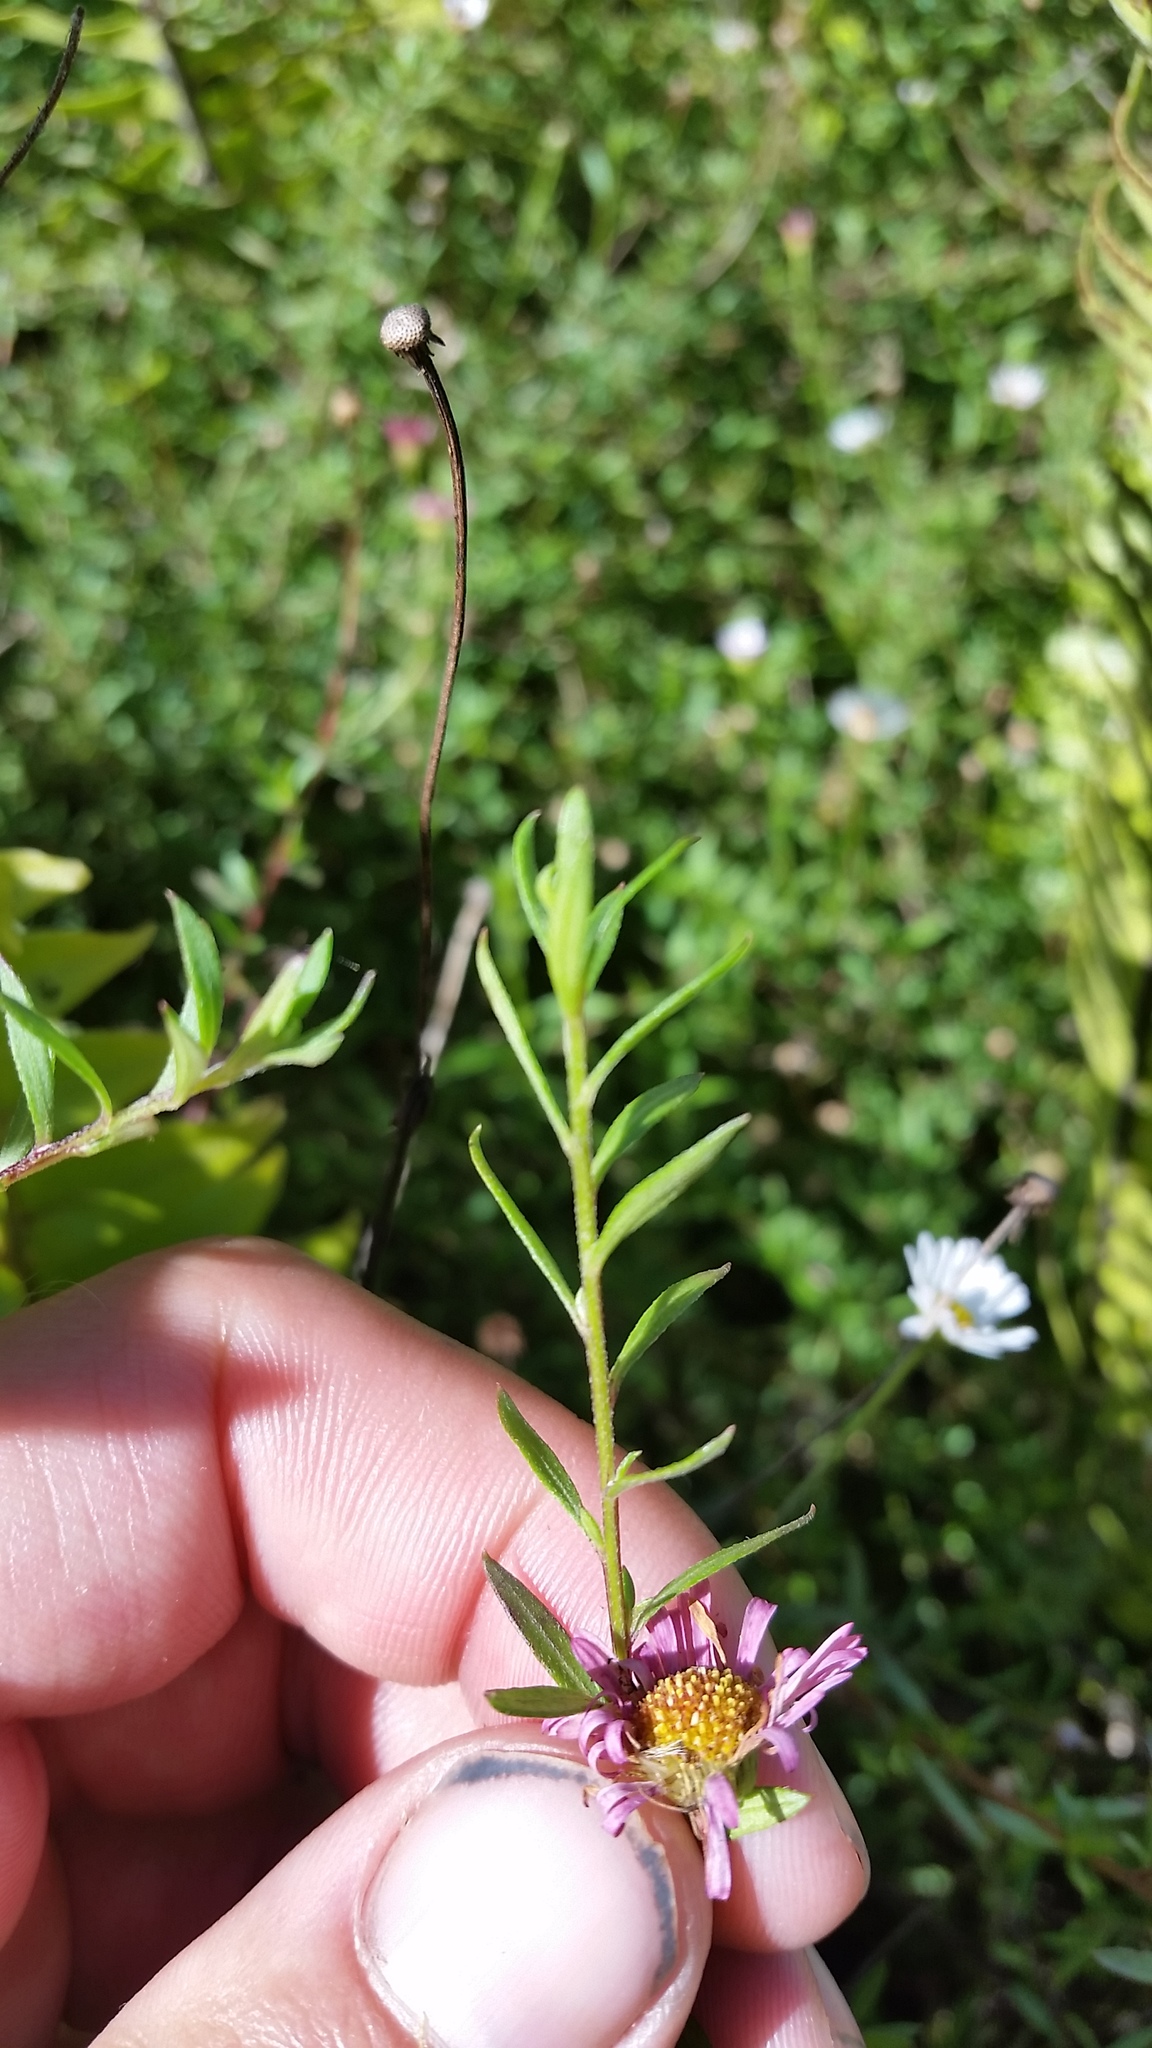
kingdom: Plantae
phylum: Tracheophyta
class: Magnoliopsida
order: Asterales
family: Asteraceae
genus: Erigeron
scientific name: Erigeron karvinskianus
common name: Mexican fleabane
